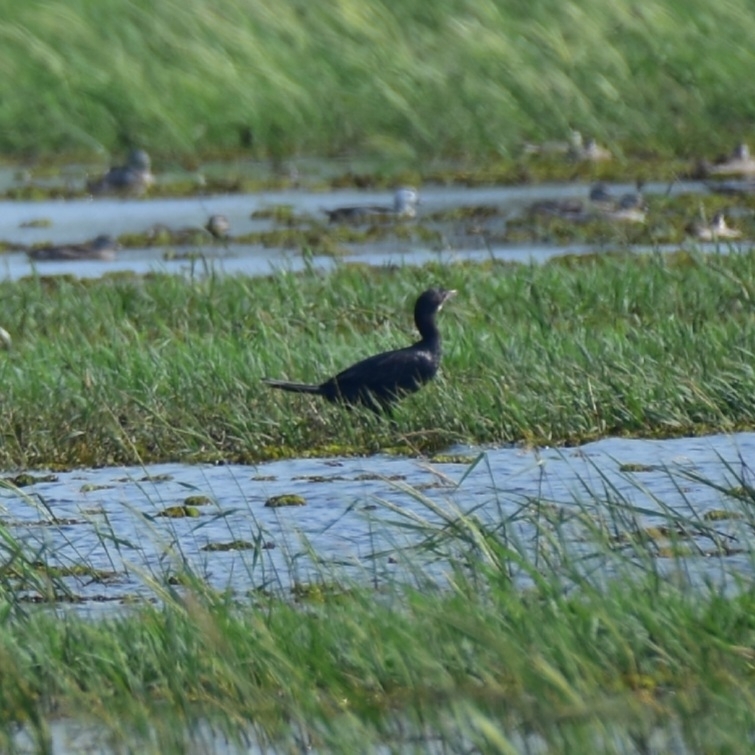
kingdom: Animalia
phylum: Chordata
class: Aves
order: Suliformes
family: Phalacrocoracidae
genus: Microcarbo
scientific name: Microcarbo niger
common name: Little cormorant
